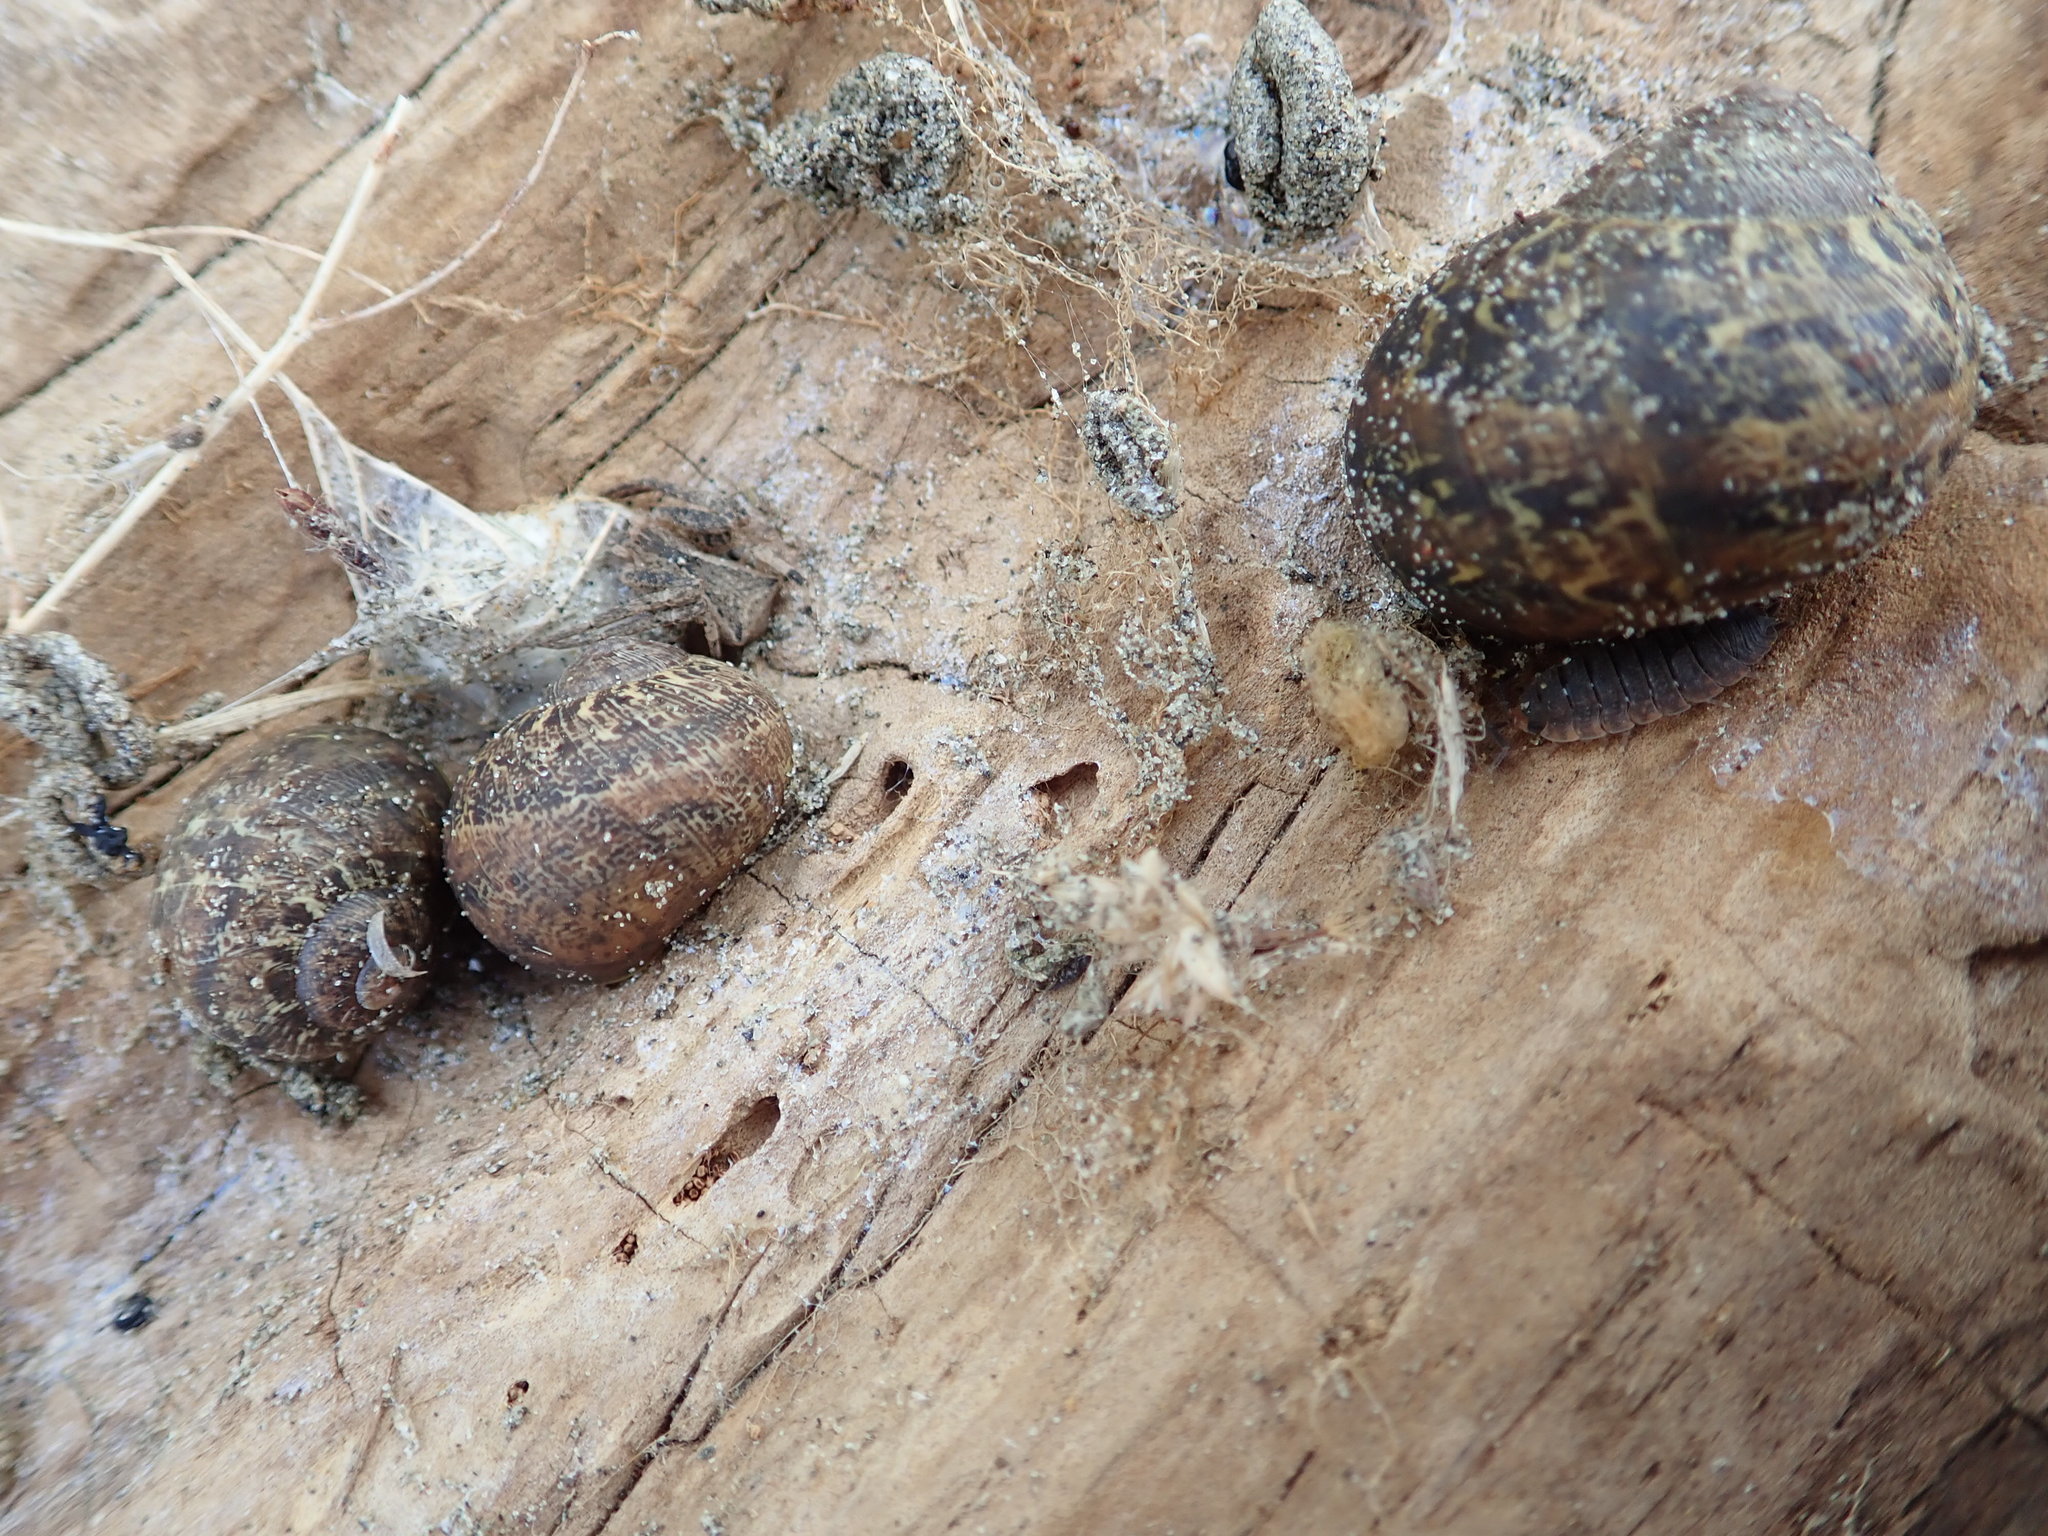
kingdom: Animalia
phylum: Mollusca
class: Gastropoda
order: Stylommatophora
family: Helicidae
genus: Cornu
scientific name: Cornu aspersum
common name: Brown garden snail
